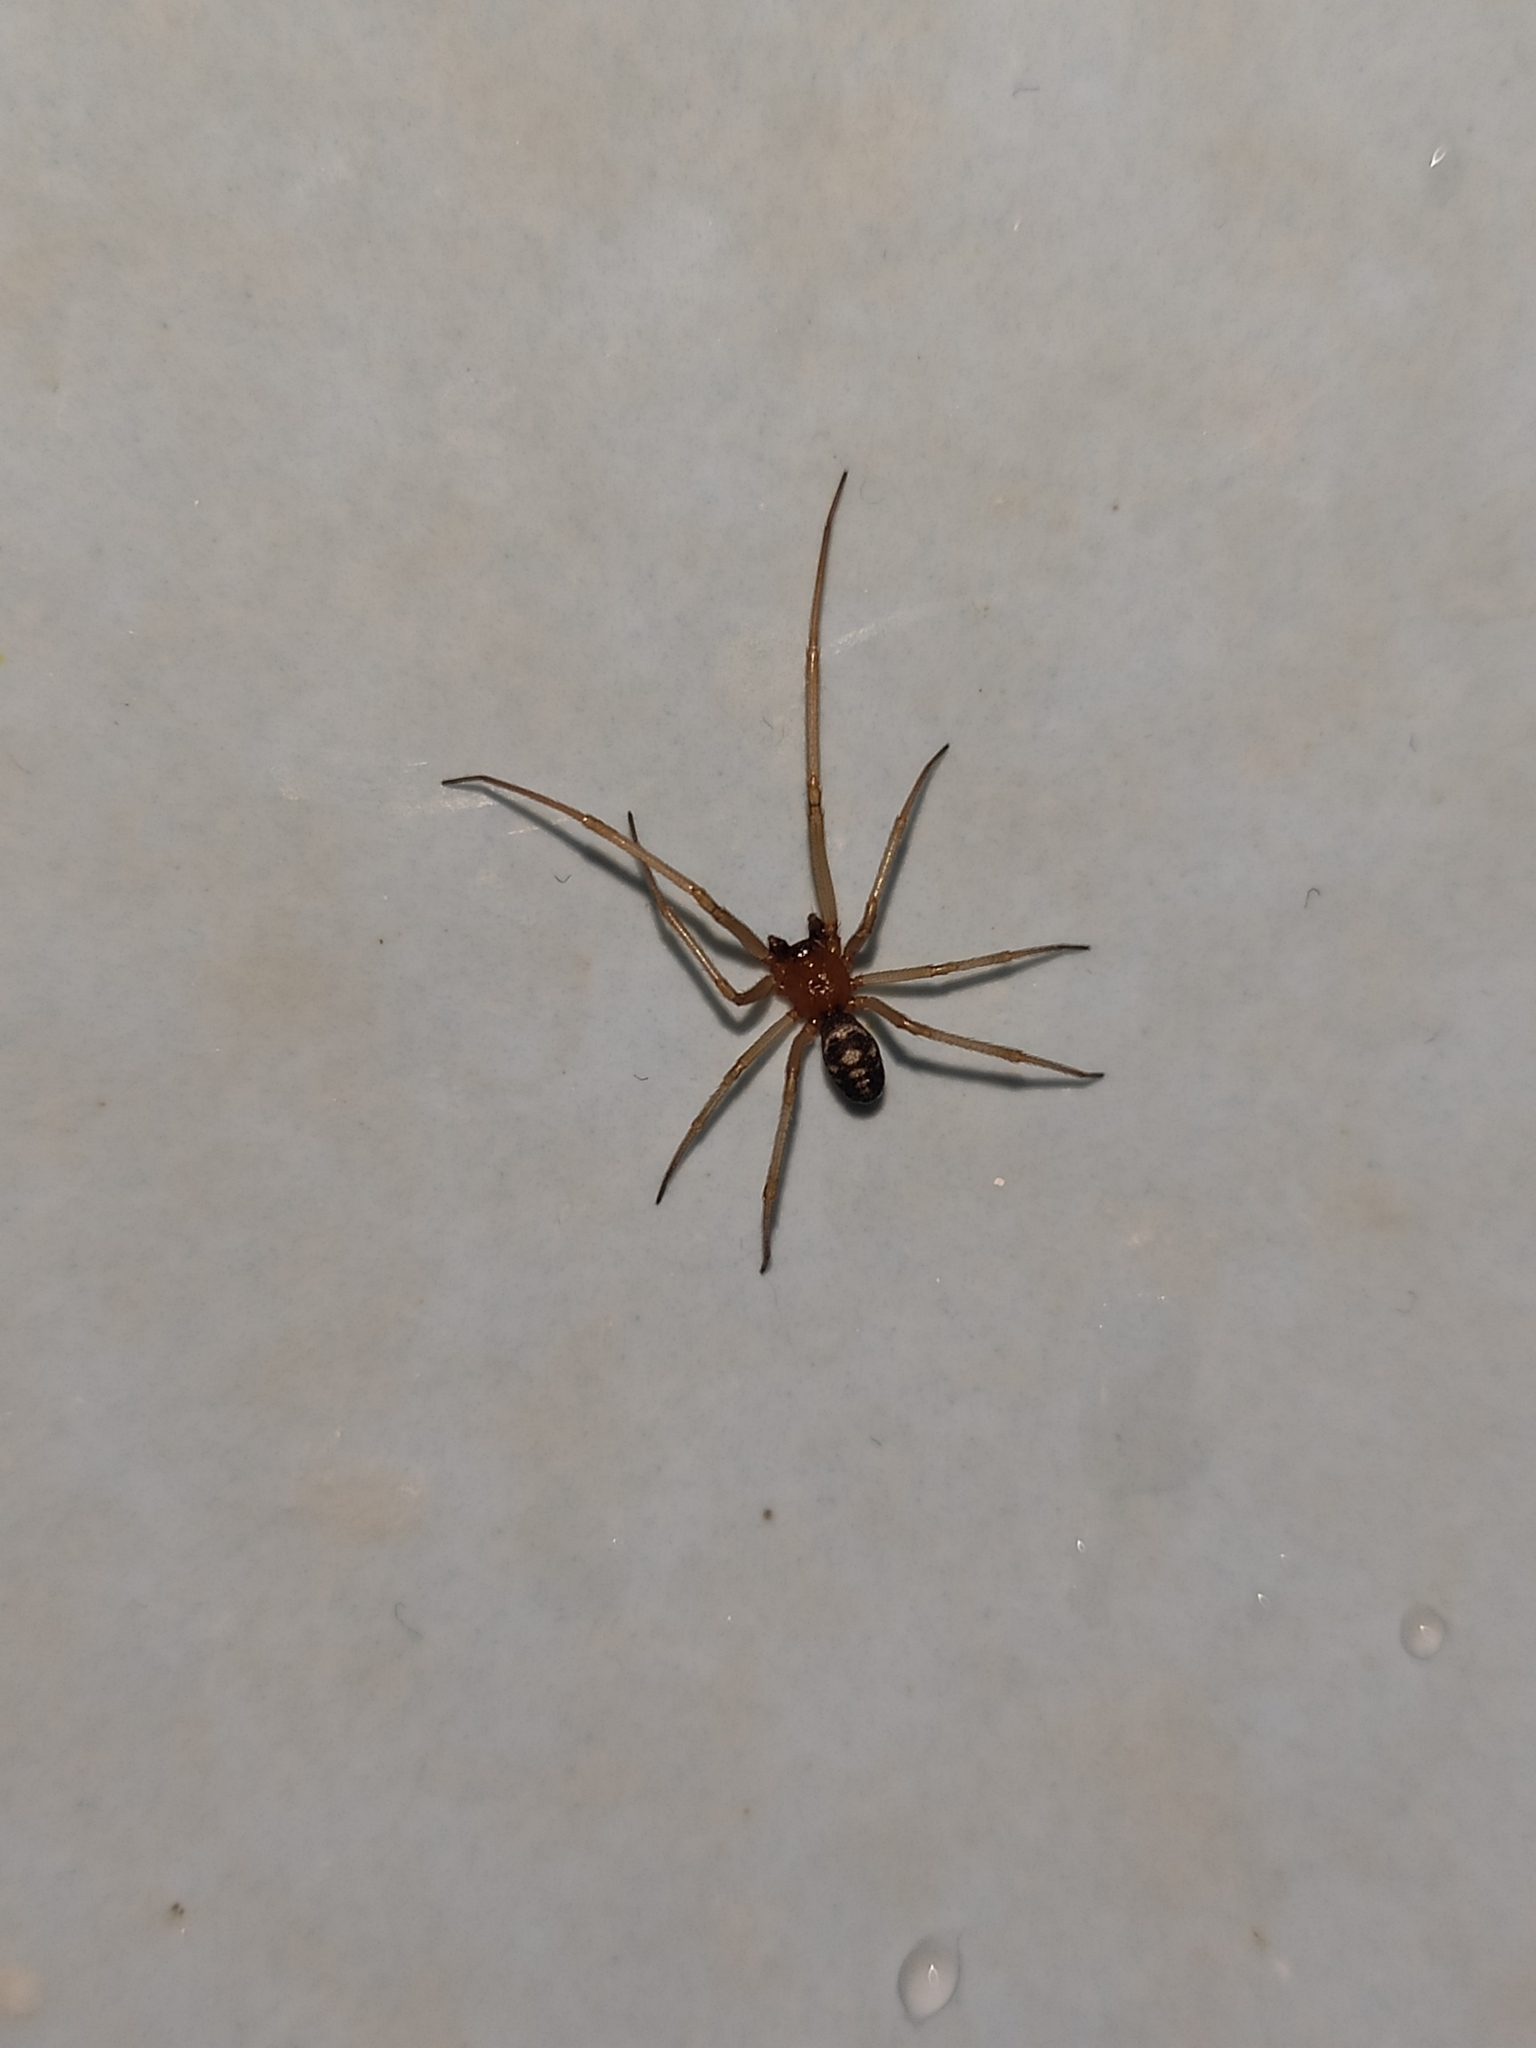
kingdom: Animalia
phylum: Arthropoda
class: Arachnida
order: Araneae
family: Theridiidae
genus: Steatoda
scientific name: Steatoda grossa
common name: False black widow
